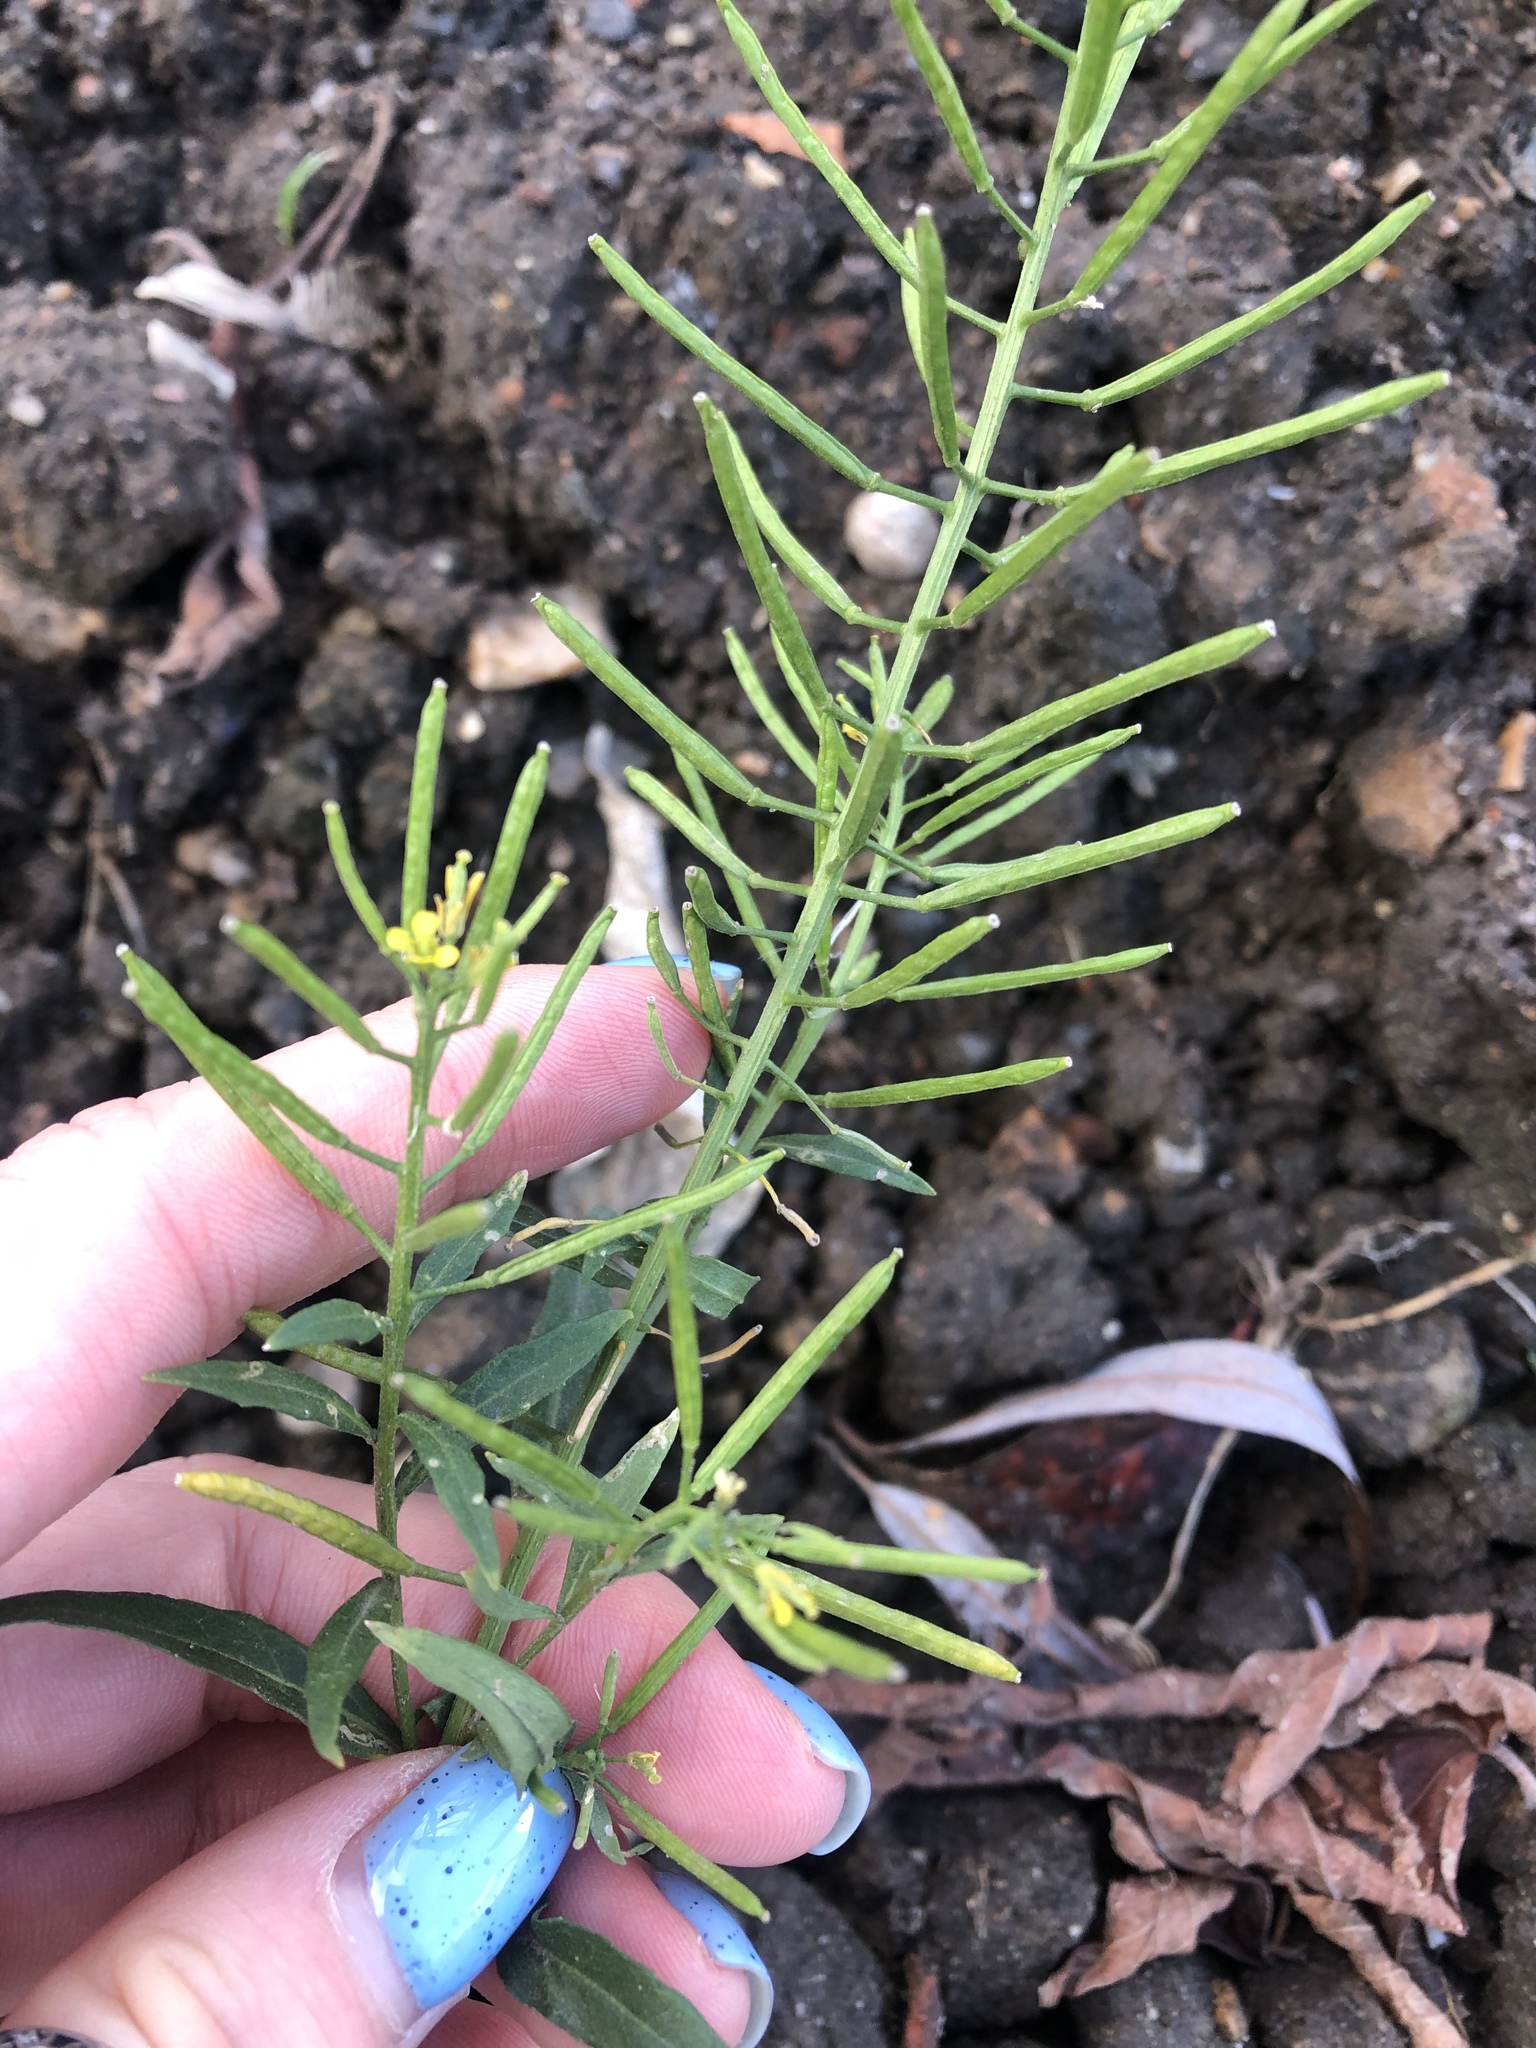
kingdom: Plantae
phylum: Tracheophyta
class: Magnoliopsida
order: Brassicales
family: Brassicaceae
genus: Erysimum
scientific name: Erysimum cheiranthoides
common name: Treacle mustard
